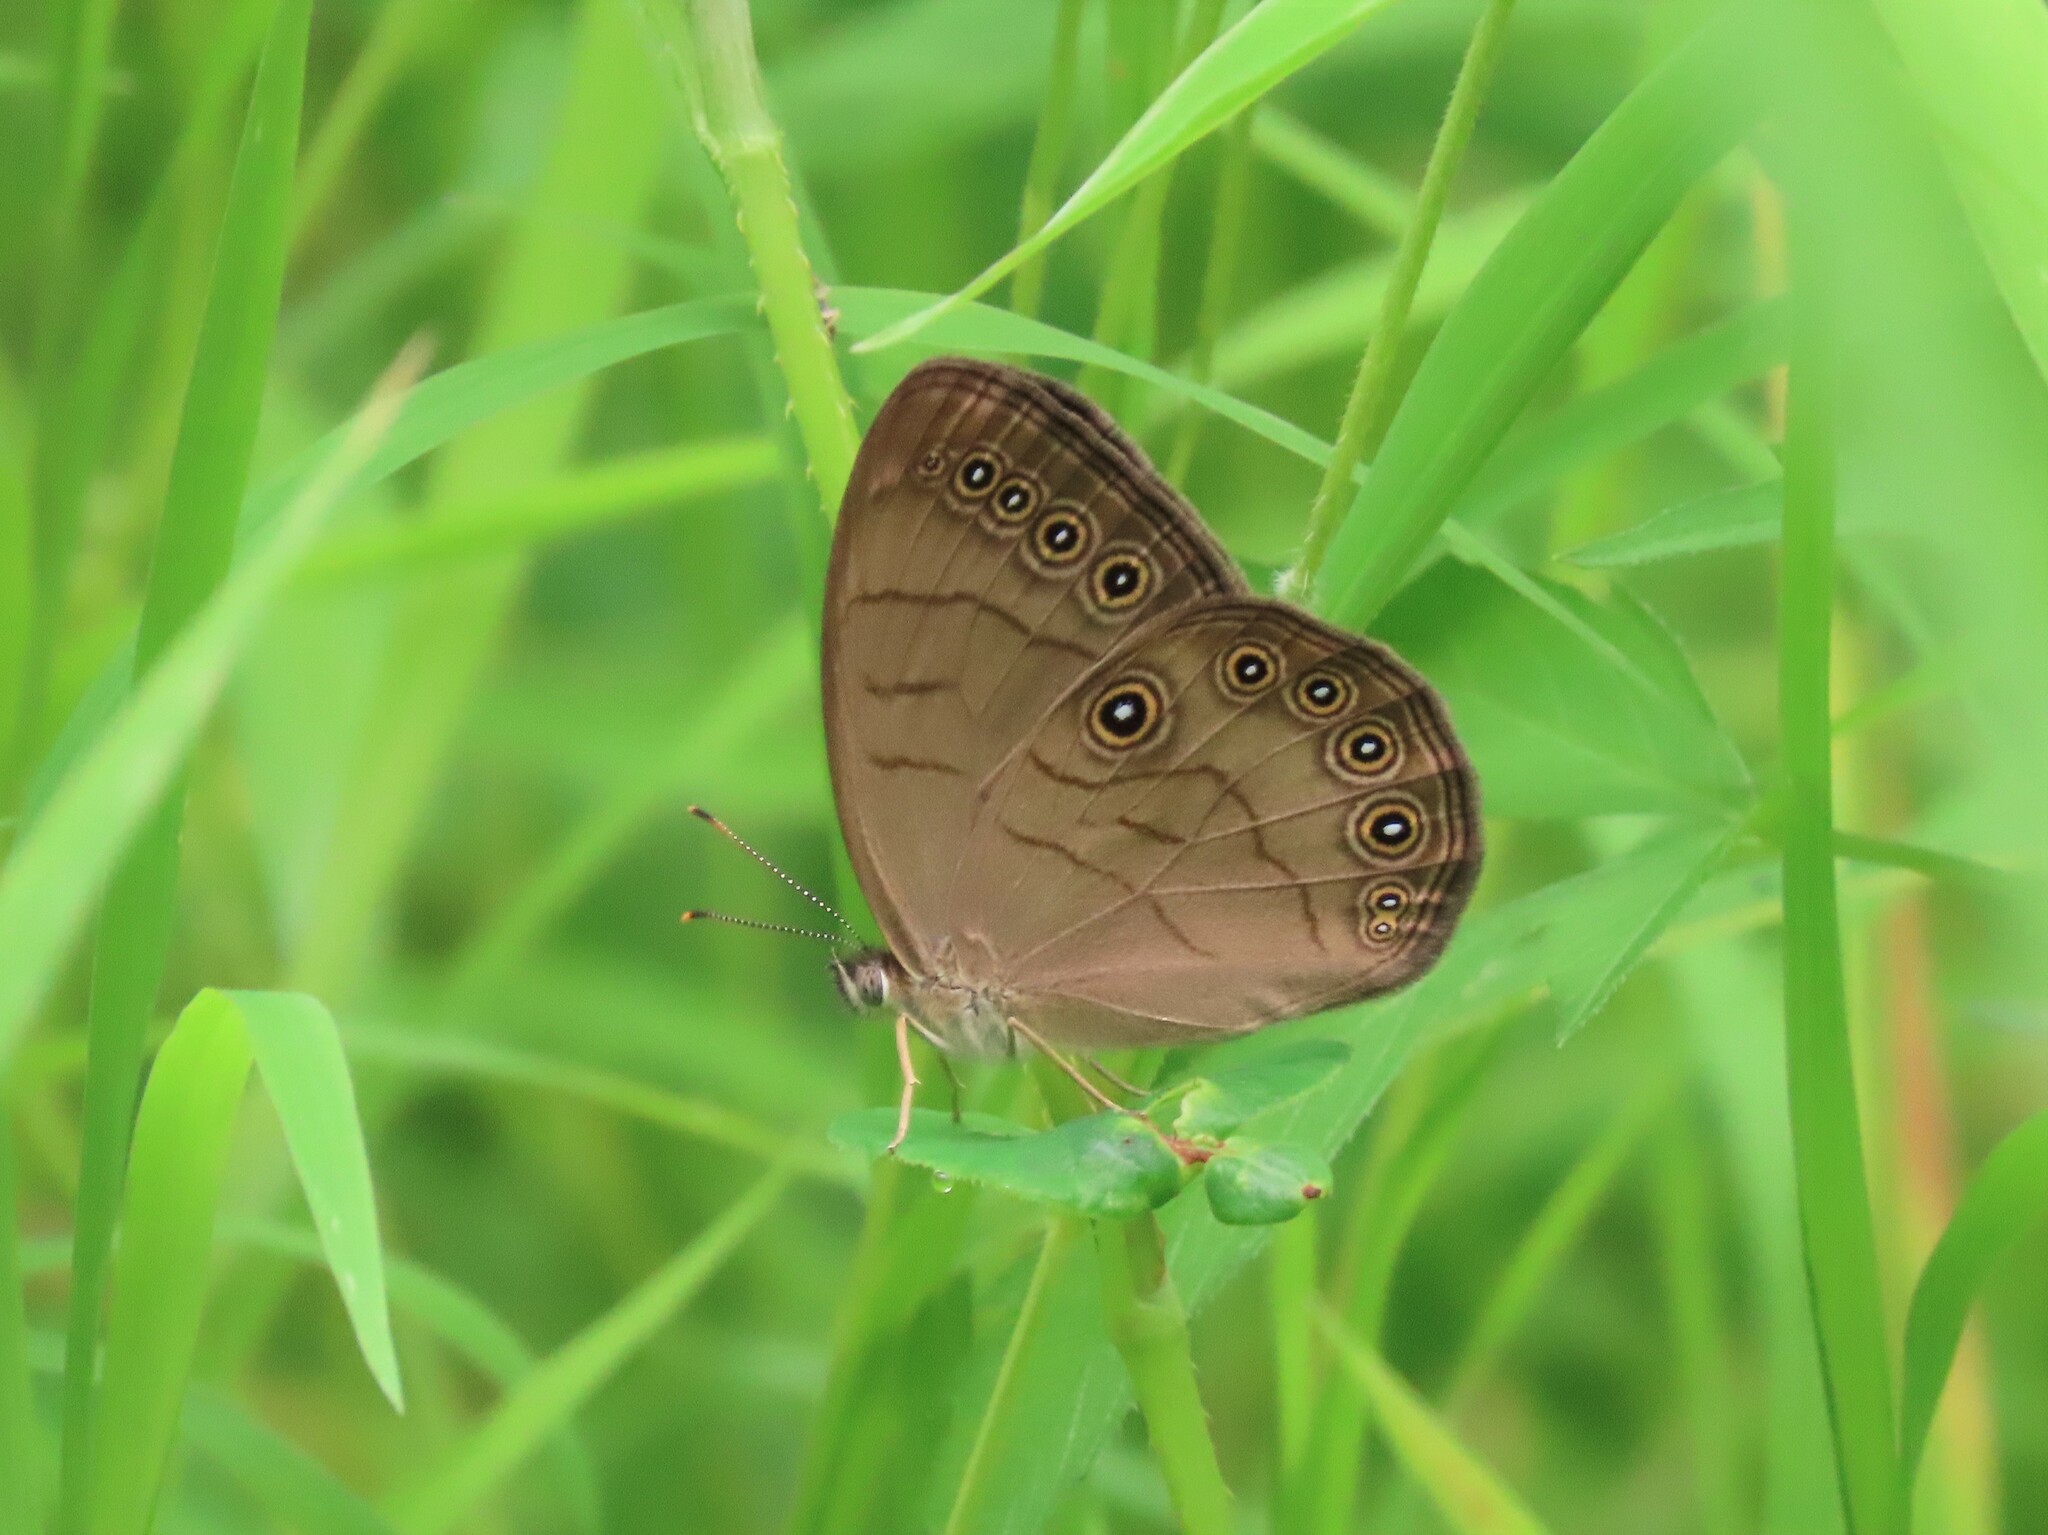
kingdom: Animalia
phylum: Arthropoda
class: Insecta
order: Lepidoptera
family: Nymphalidae
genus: Lethe
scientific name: Lethe eurydice
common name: Eyed brown
